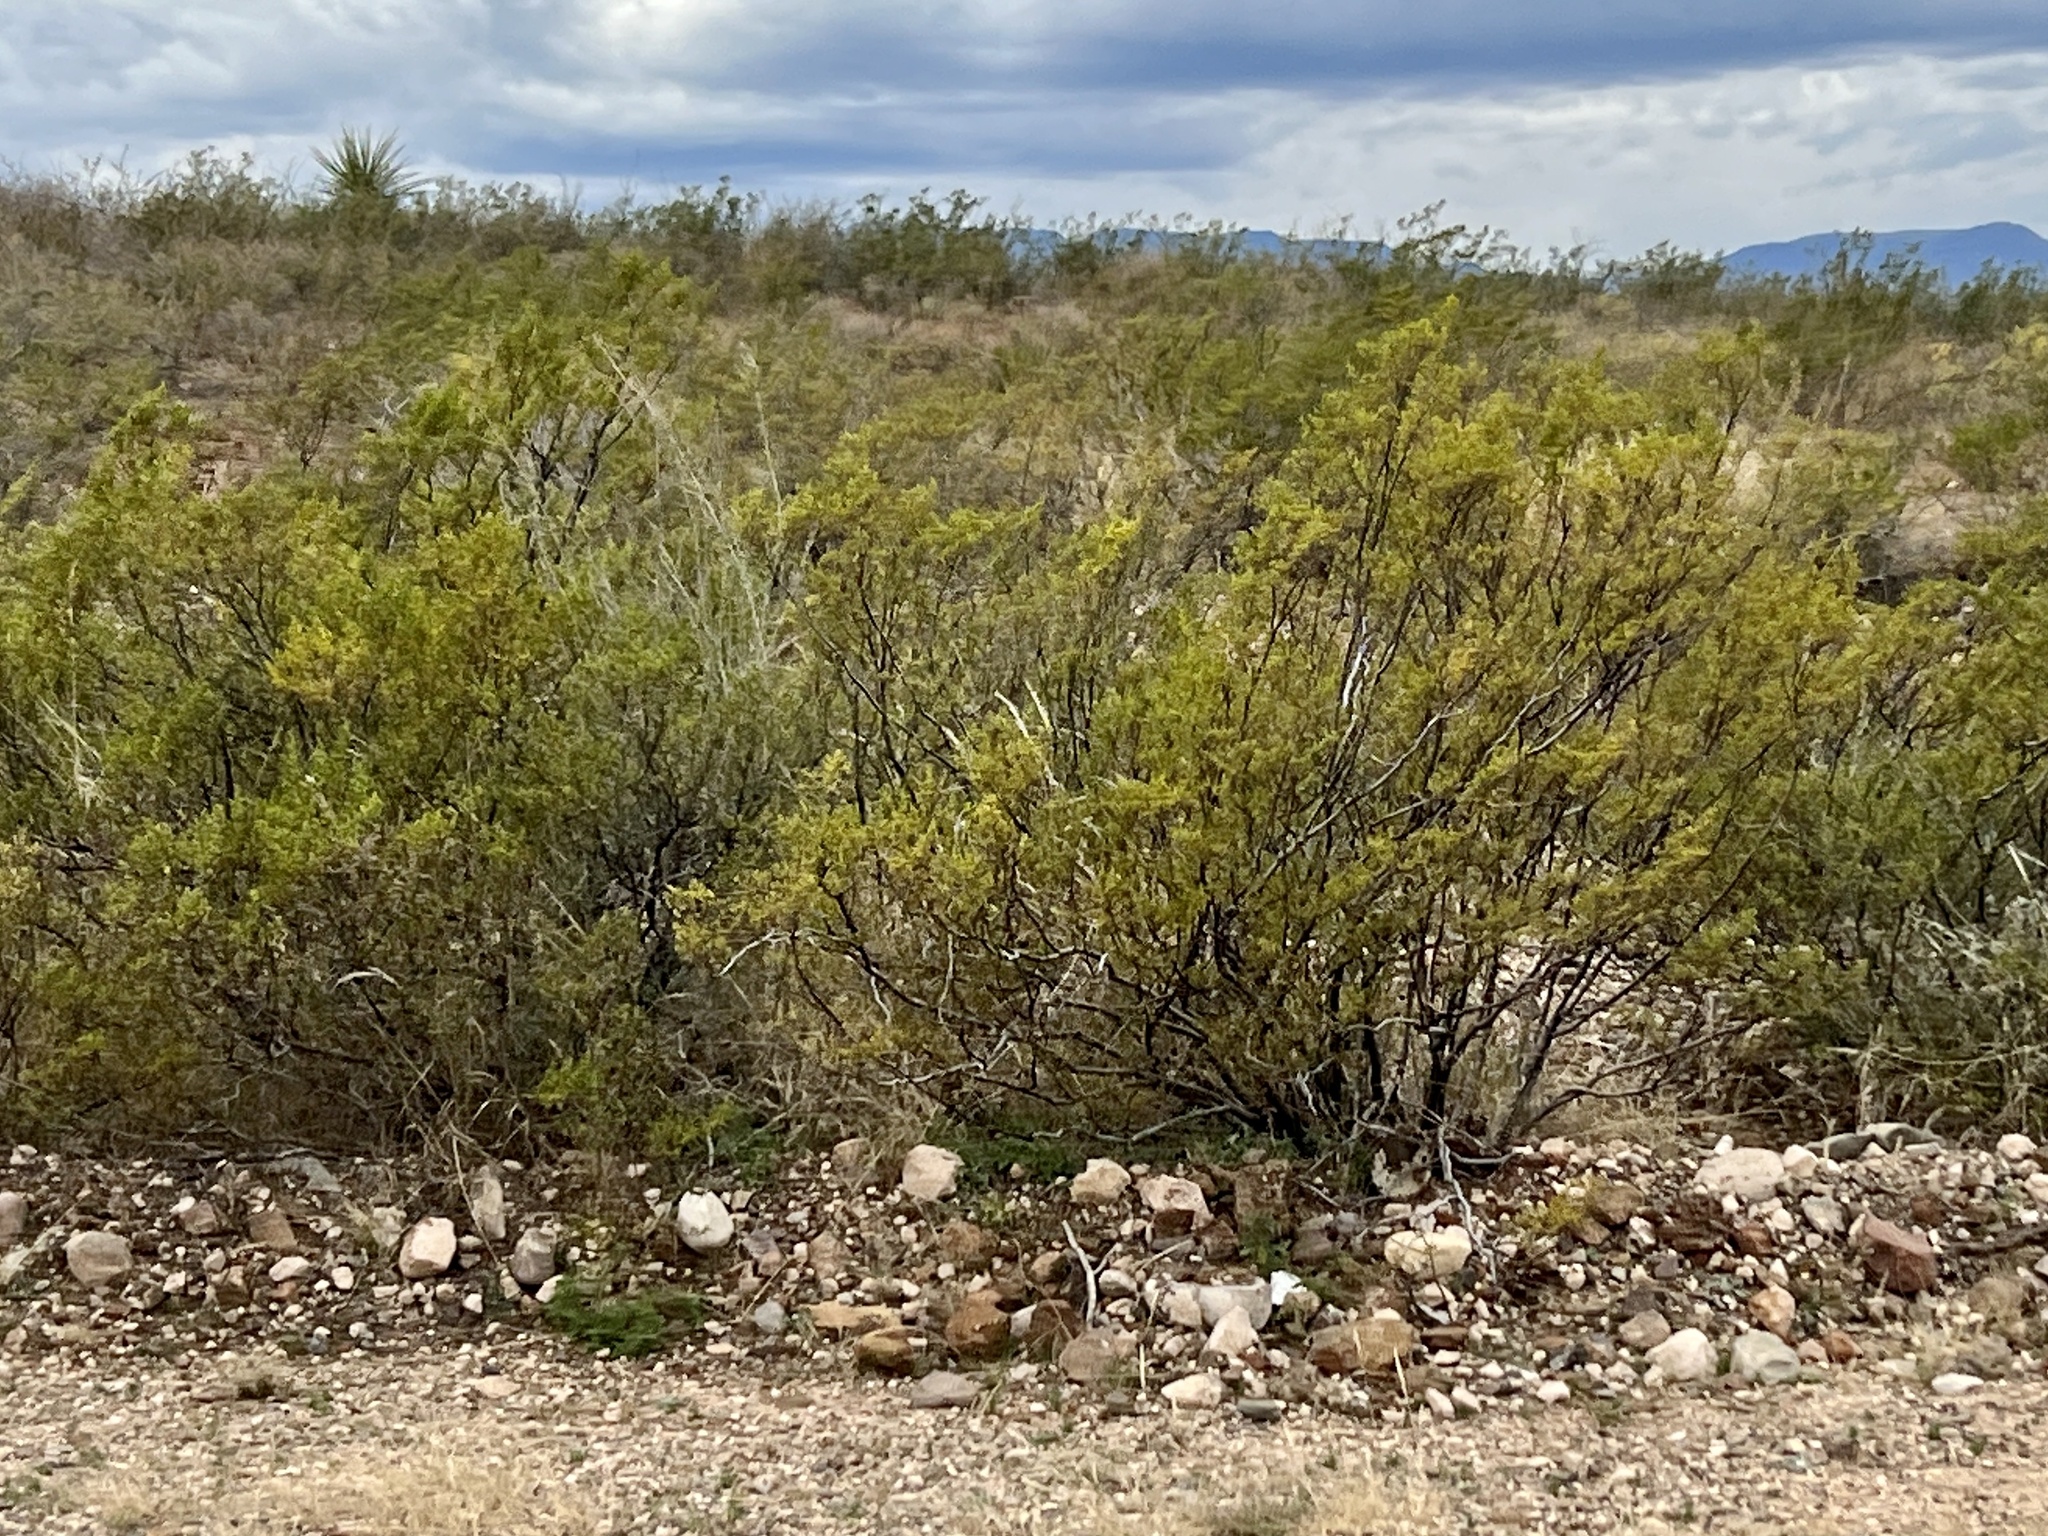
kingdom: Plantae
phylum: Tracheophyta
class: Magnoliopsida
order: Zygophyllales
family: Zygophyllaceae
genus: Larrea
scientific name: Larrea tridentata
